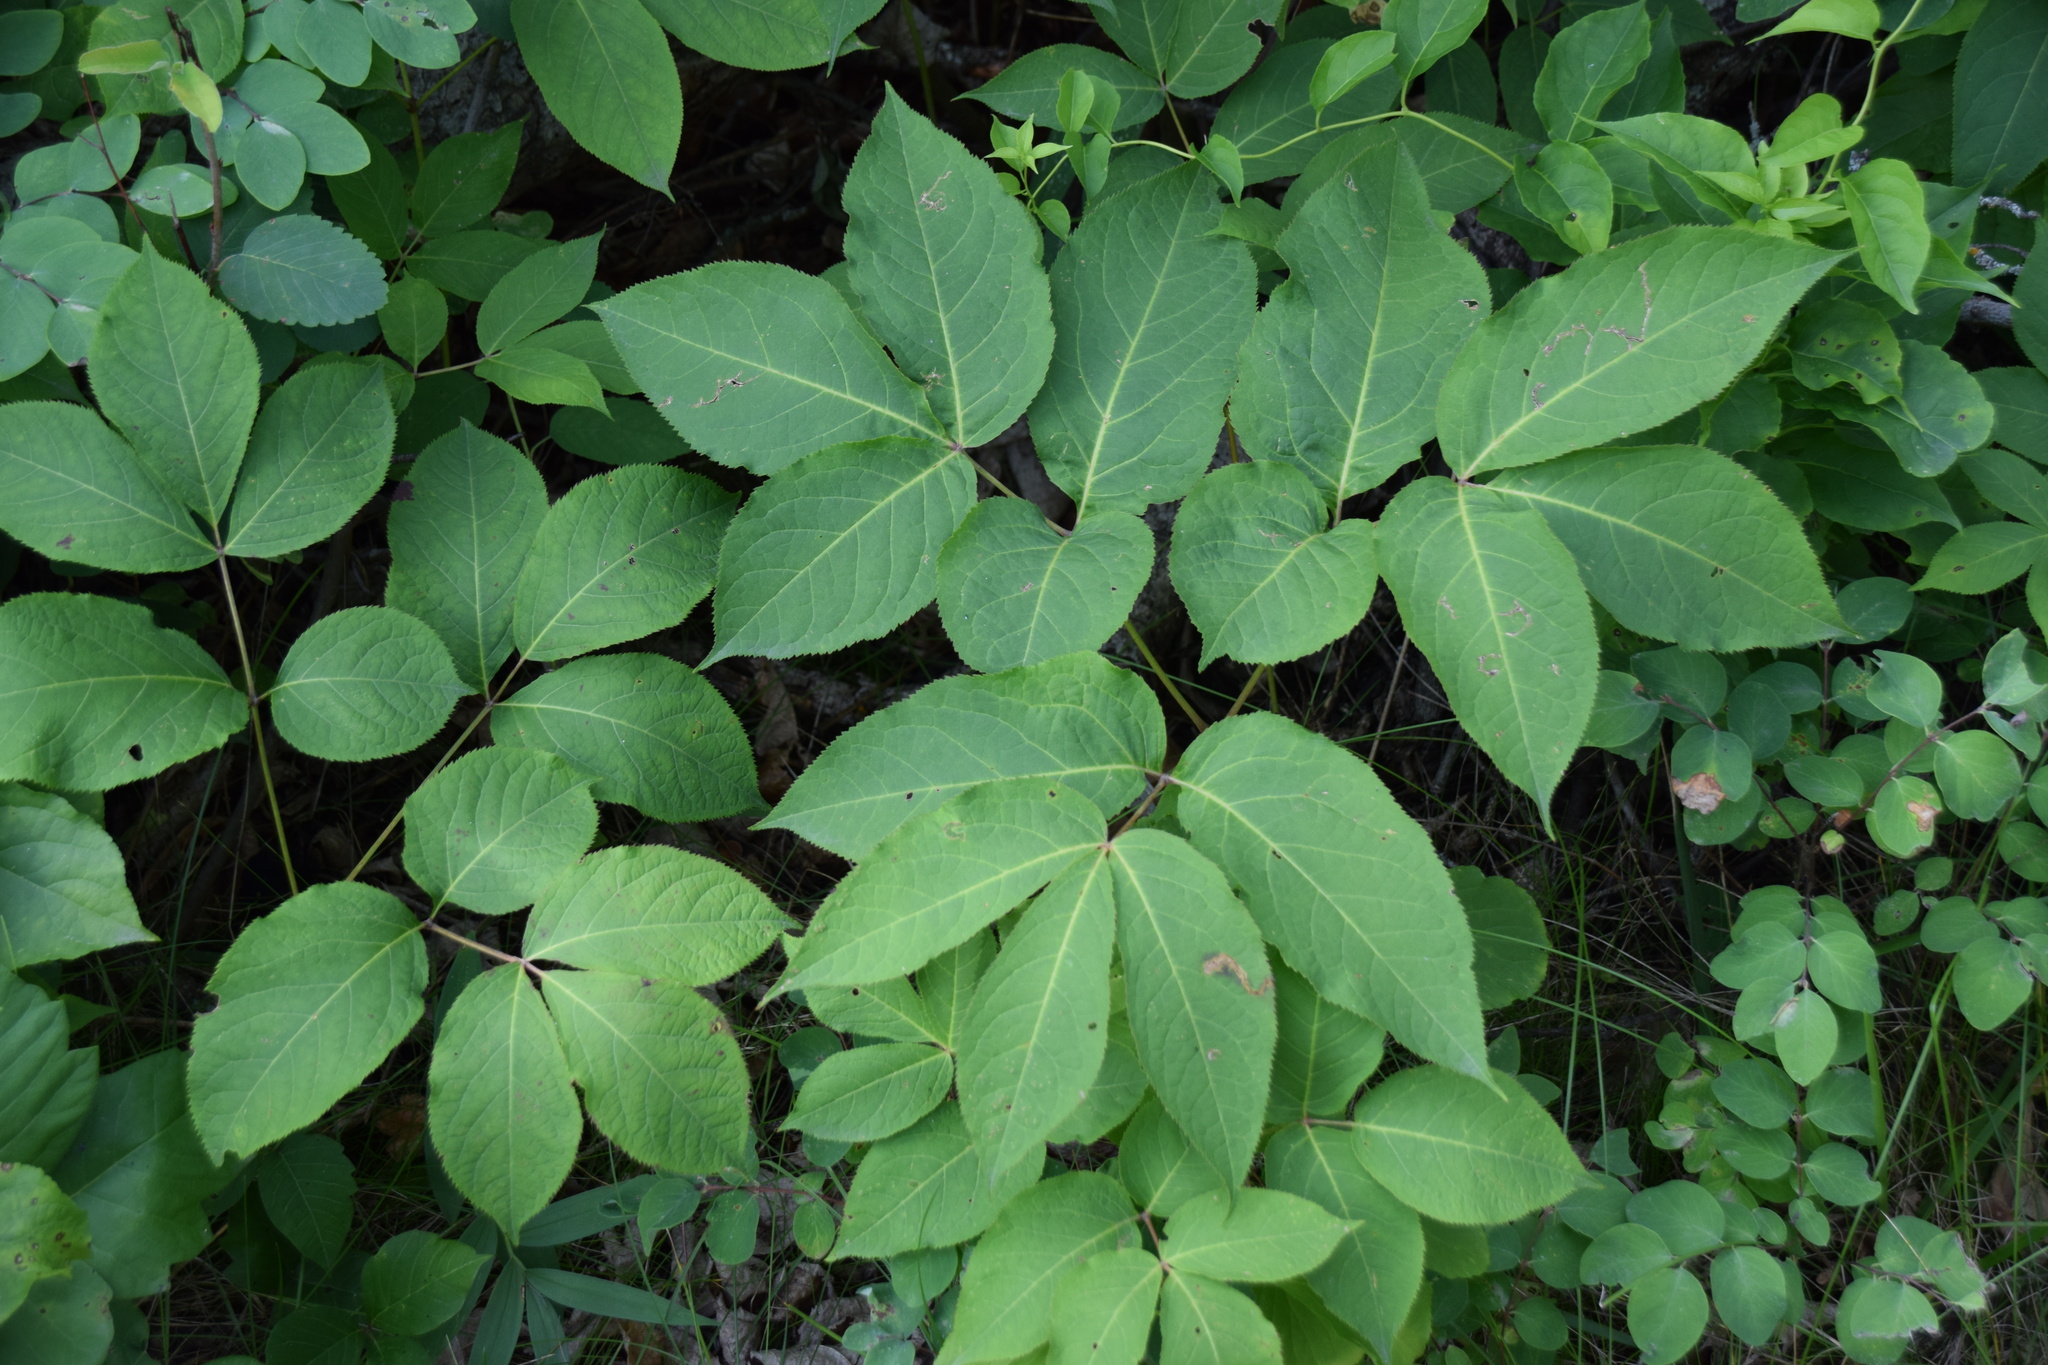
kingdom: Plantae
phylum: Tracheophyta
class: Magnoliopsida
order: Apiales
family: Araliaceae
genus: Aralia
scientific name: Aralia nudicaulis
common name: Wild sarsaparilla
